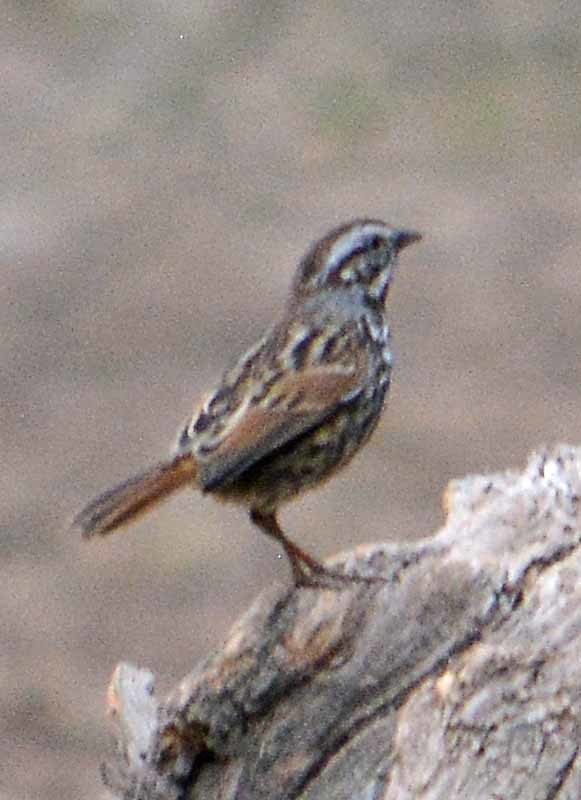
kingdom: Animalia
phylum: Chordata
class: Aves
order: Passeriformes
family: Passerellidae
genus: Melospiza
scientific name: Melospiza melodia
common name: Song sparrow
